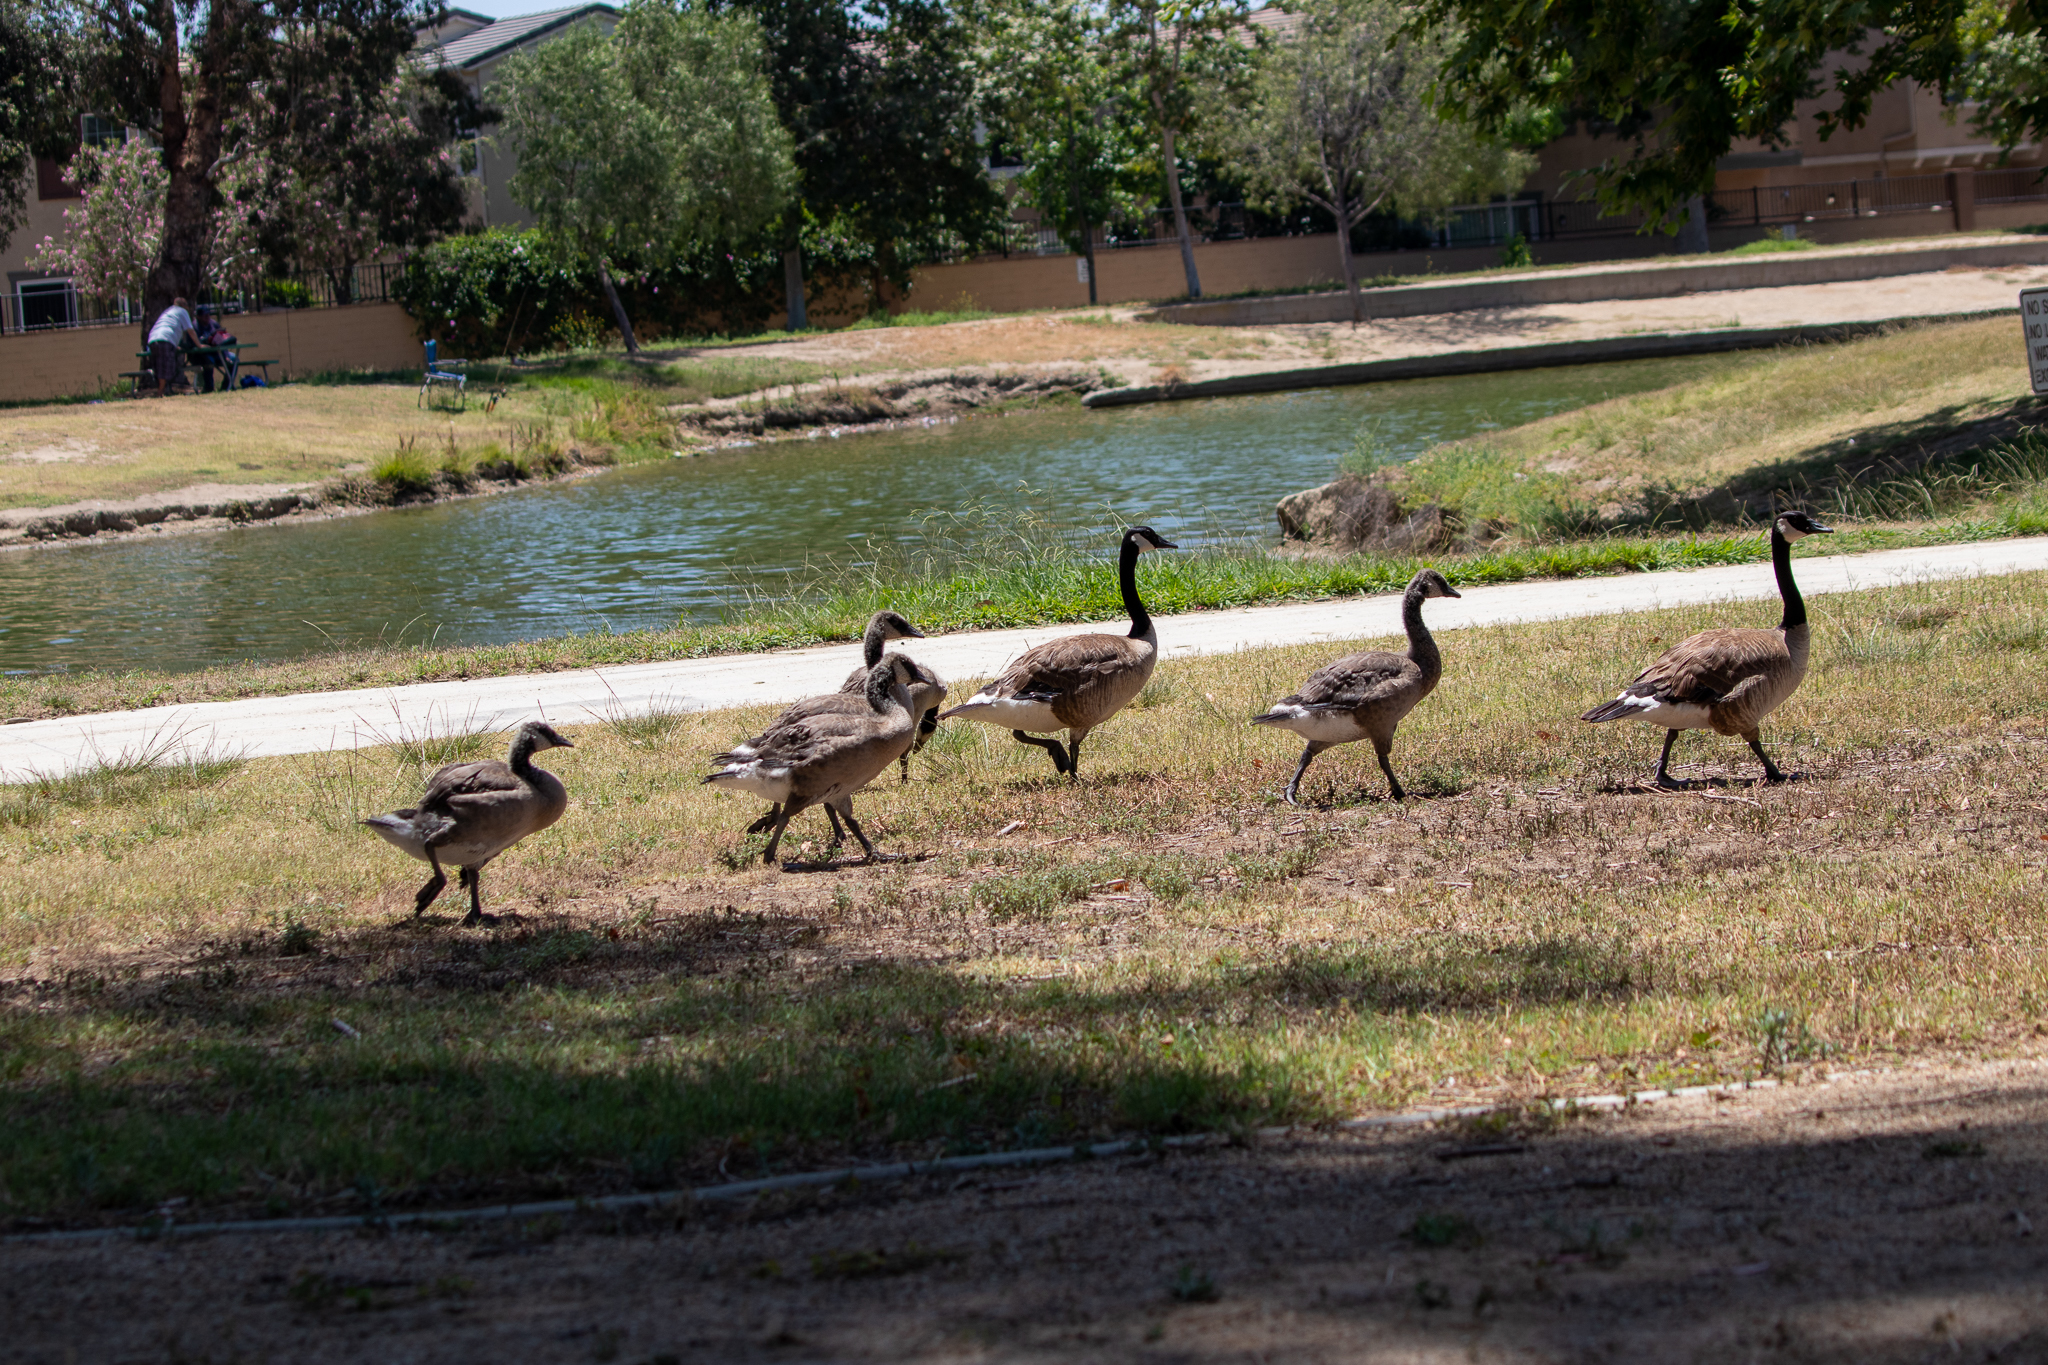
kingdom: Animalia
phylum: Chordata
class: Aves
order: Anseriformes
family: Anatidae
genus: Branta
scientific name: Branta canadensis
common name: Canada goose
